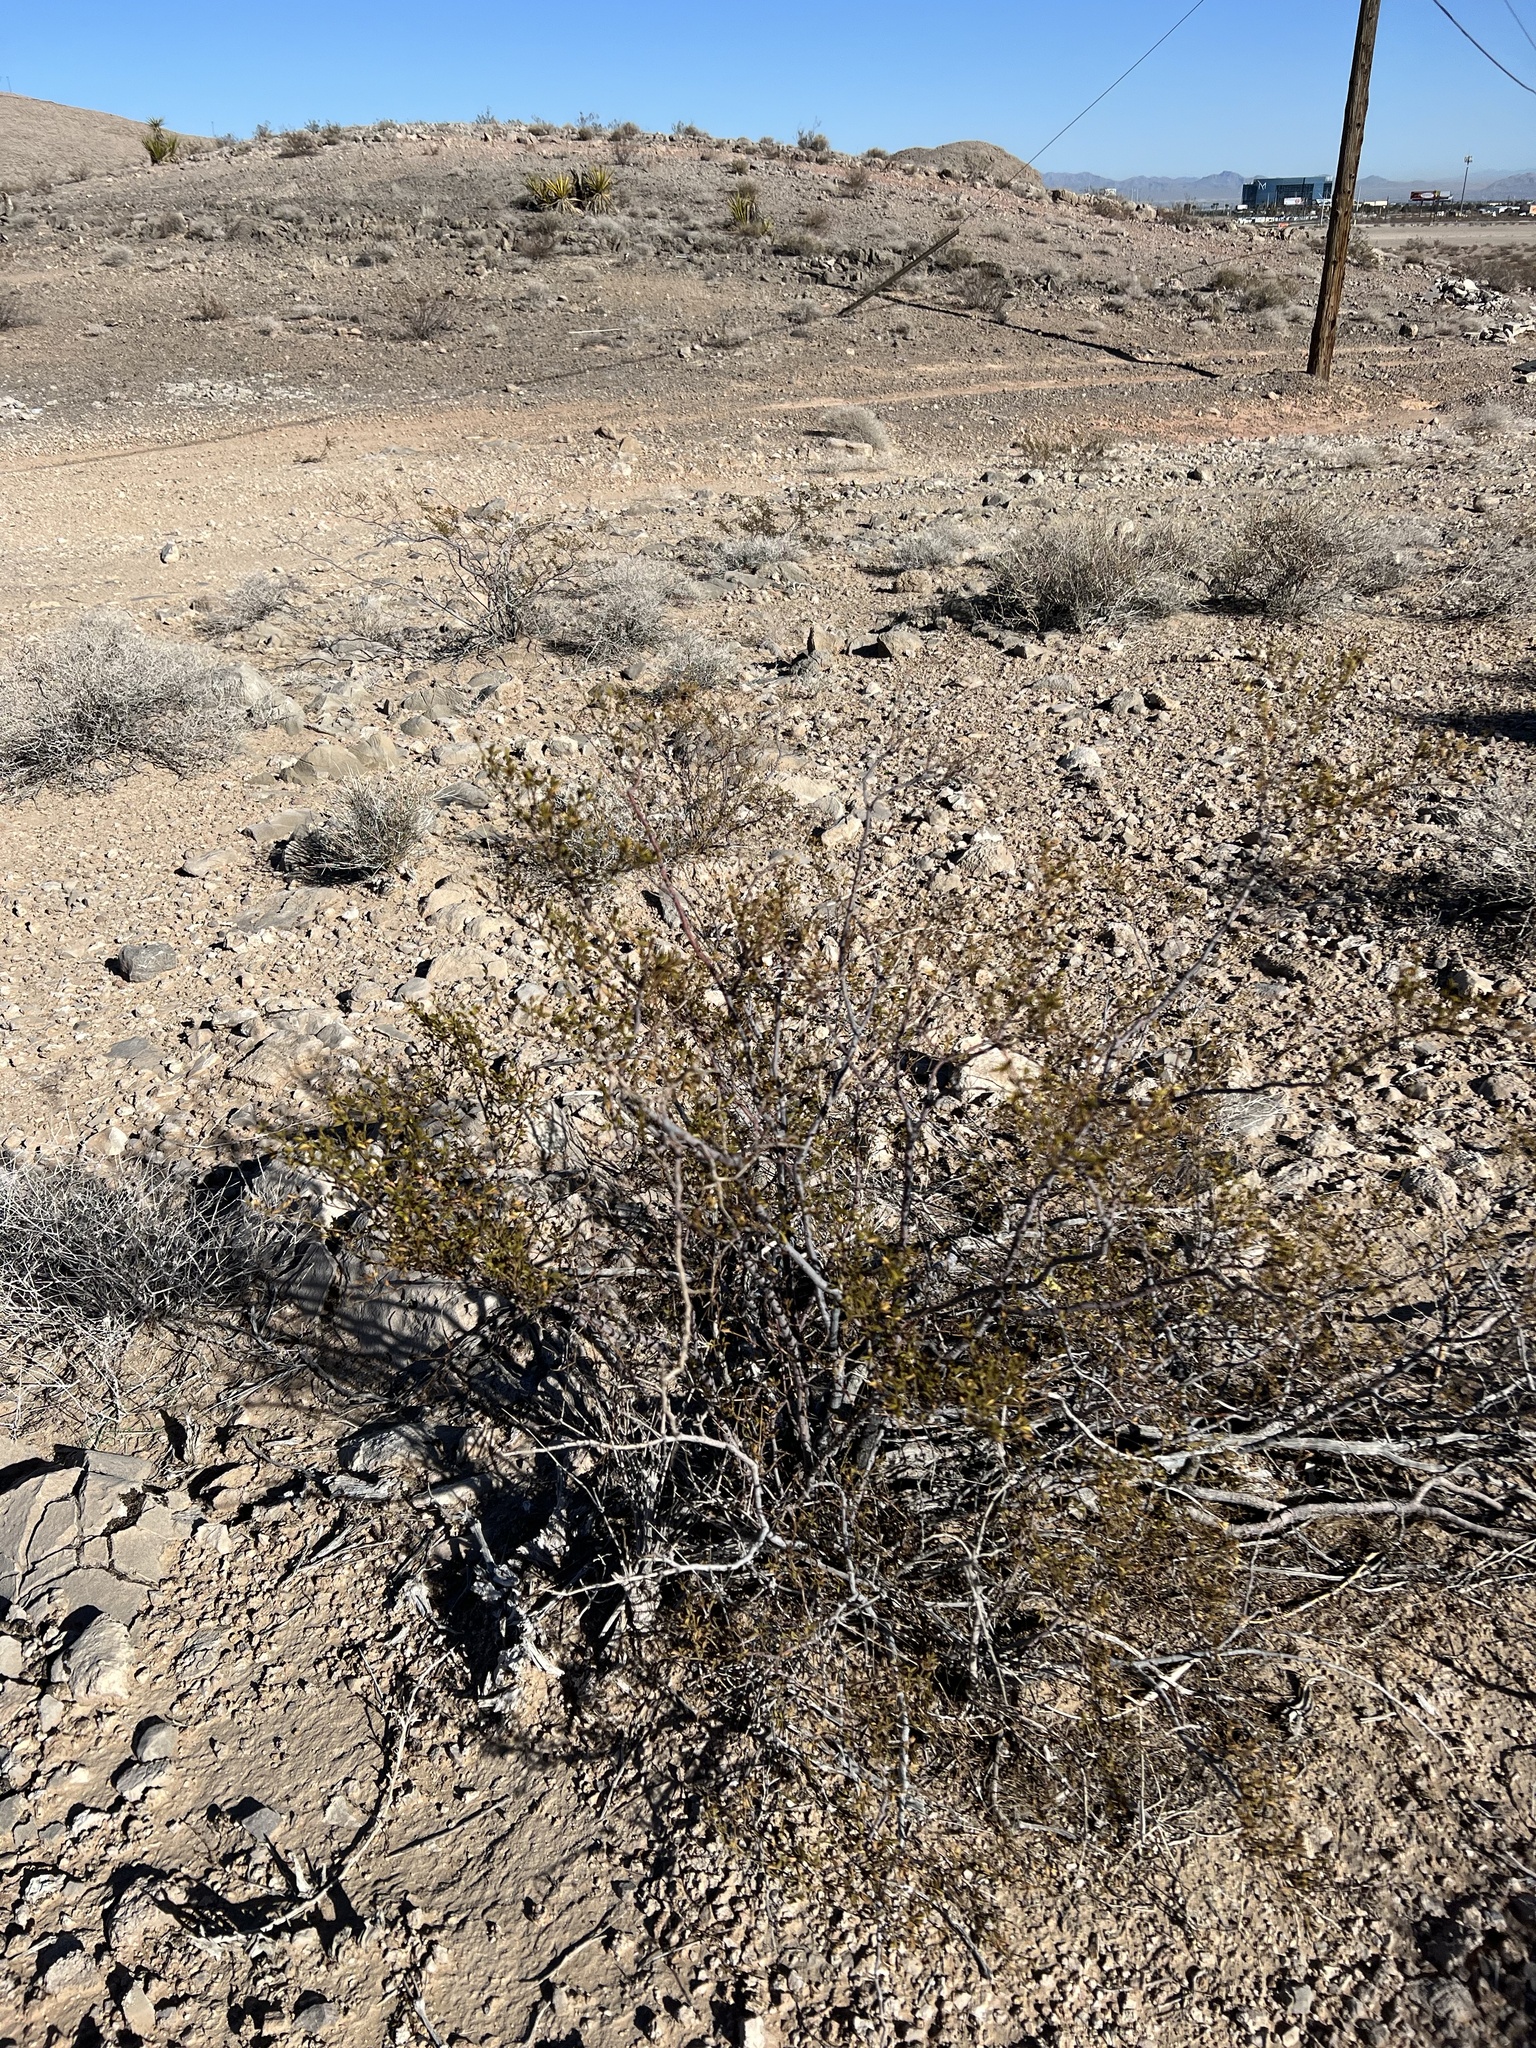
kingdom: Plantae
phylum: Tracheophyta
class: Magnoliopsida
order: Zygophyllales
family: Zygophyllaceae
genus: Larrea
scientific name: Larrea tridentata
